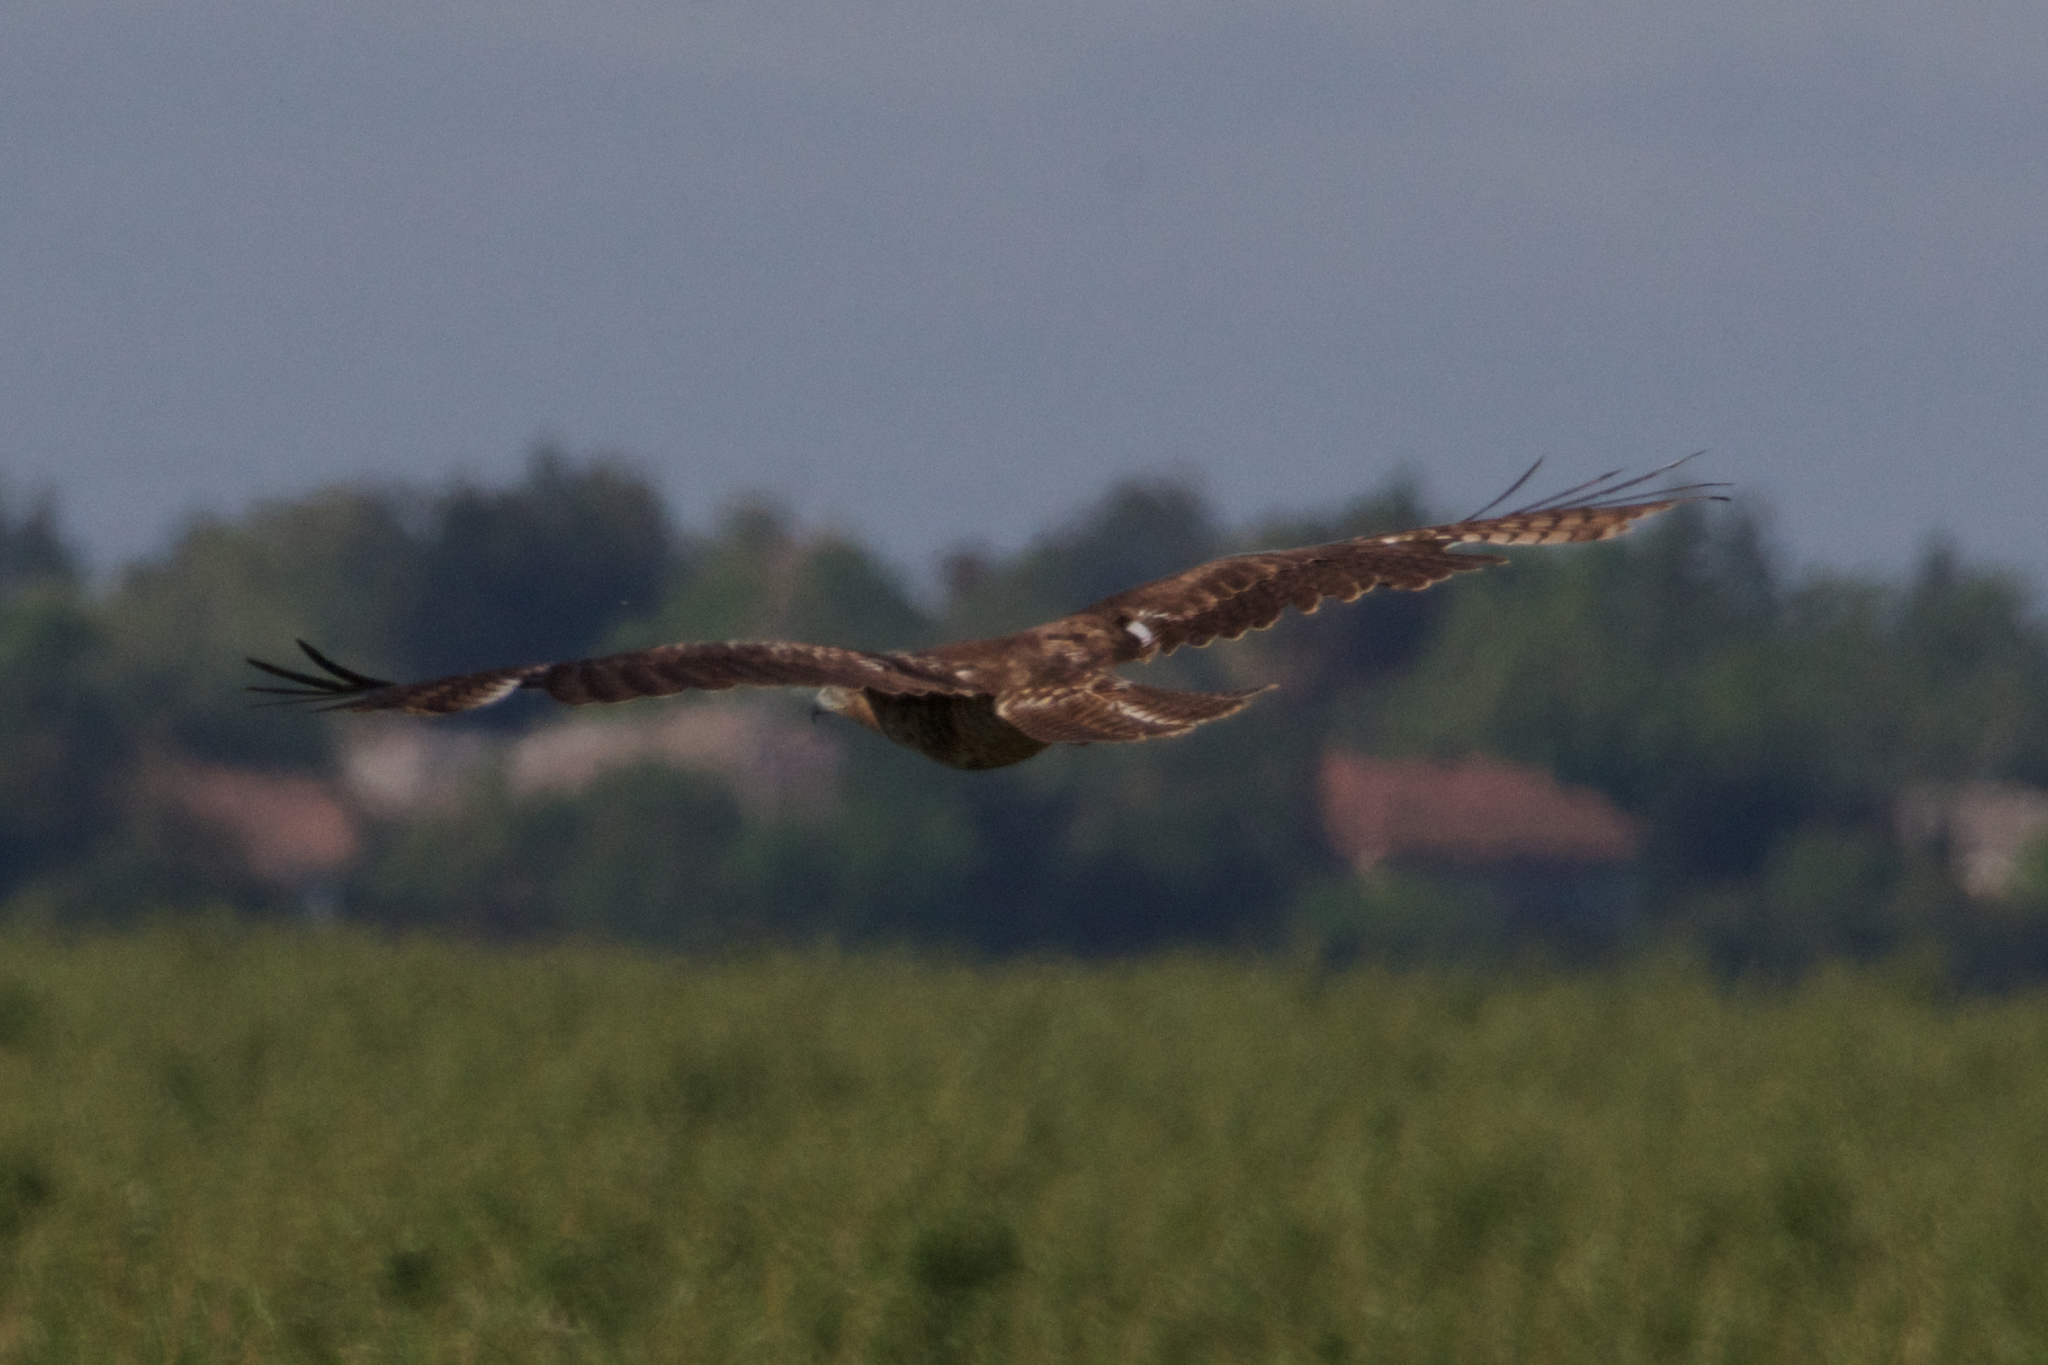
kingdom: Animalia
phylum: Chordata
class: Aves
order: Accipitriformes
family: Accipitridae
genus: Buteo
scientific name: Buteo jamaicensis
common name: Red-tailed hawk
